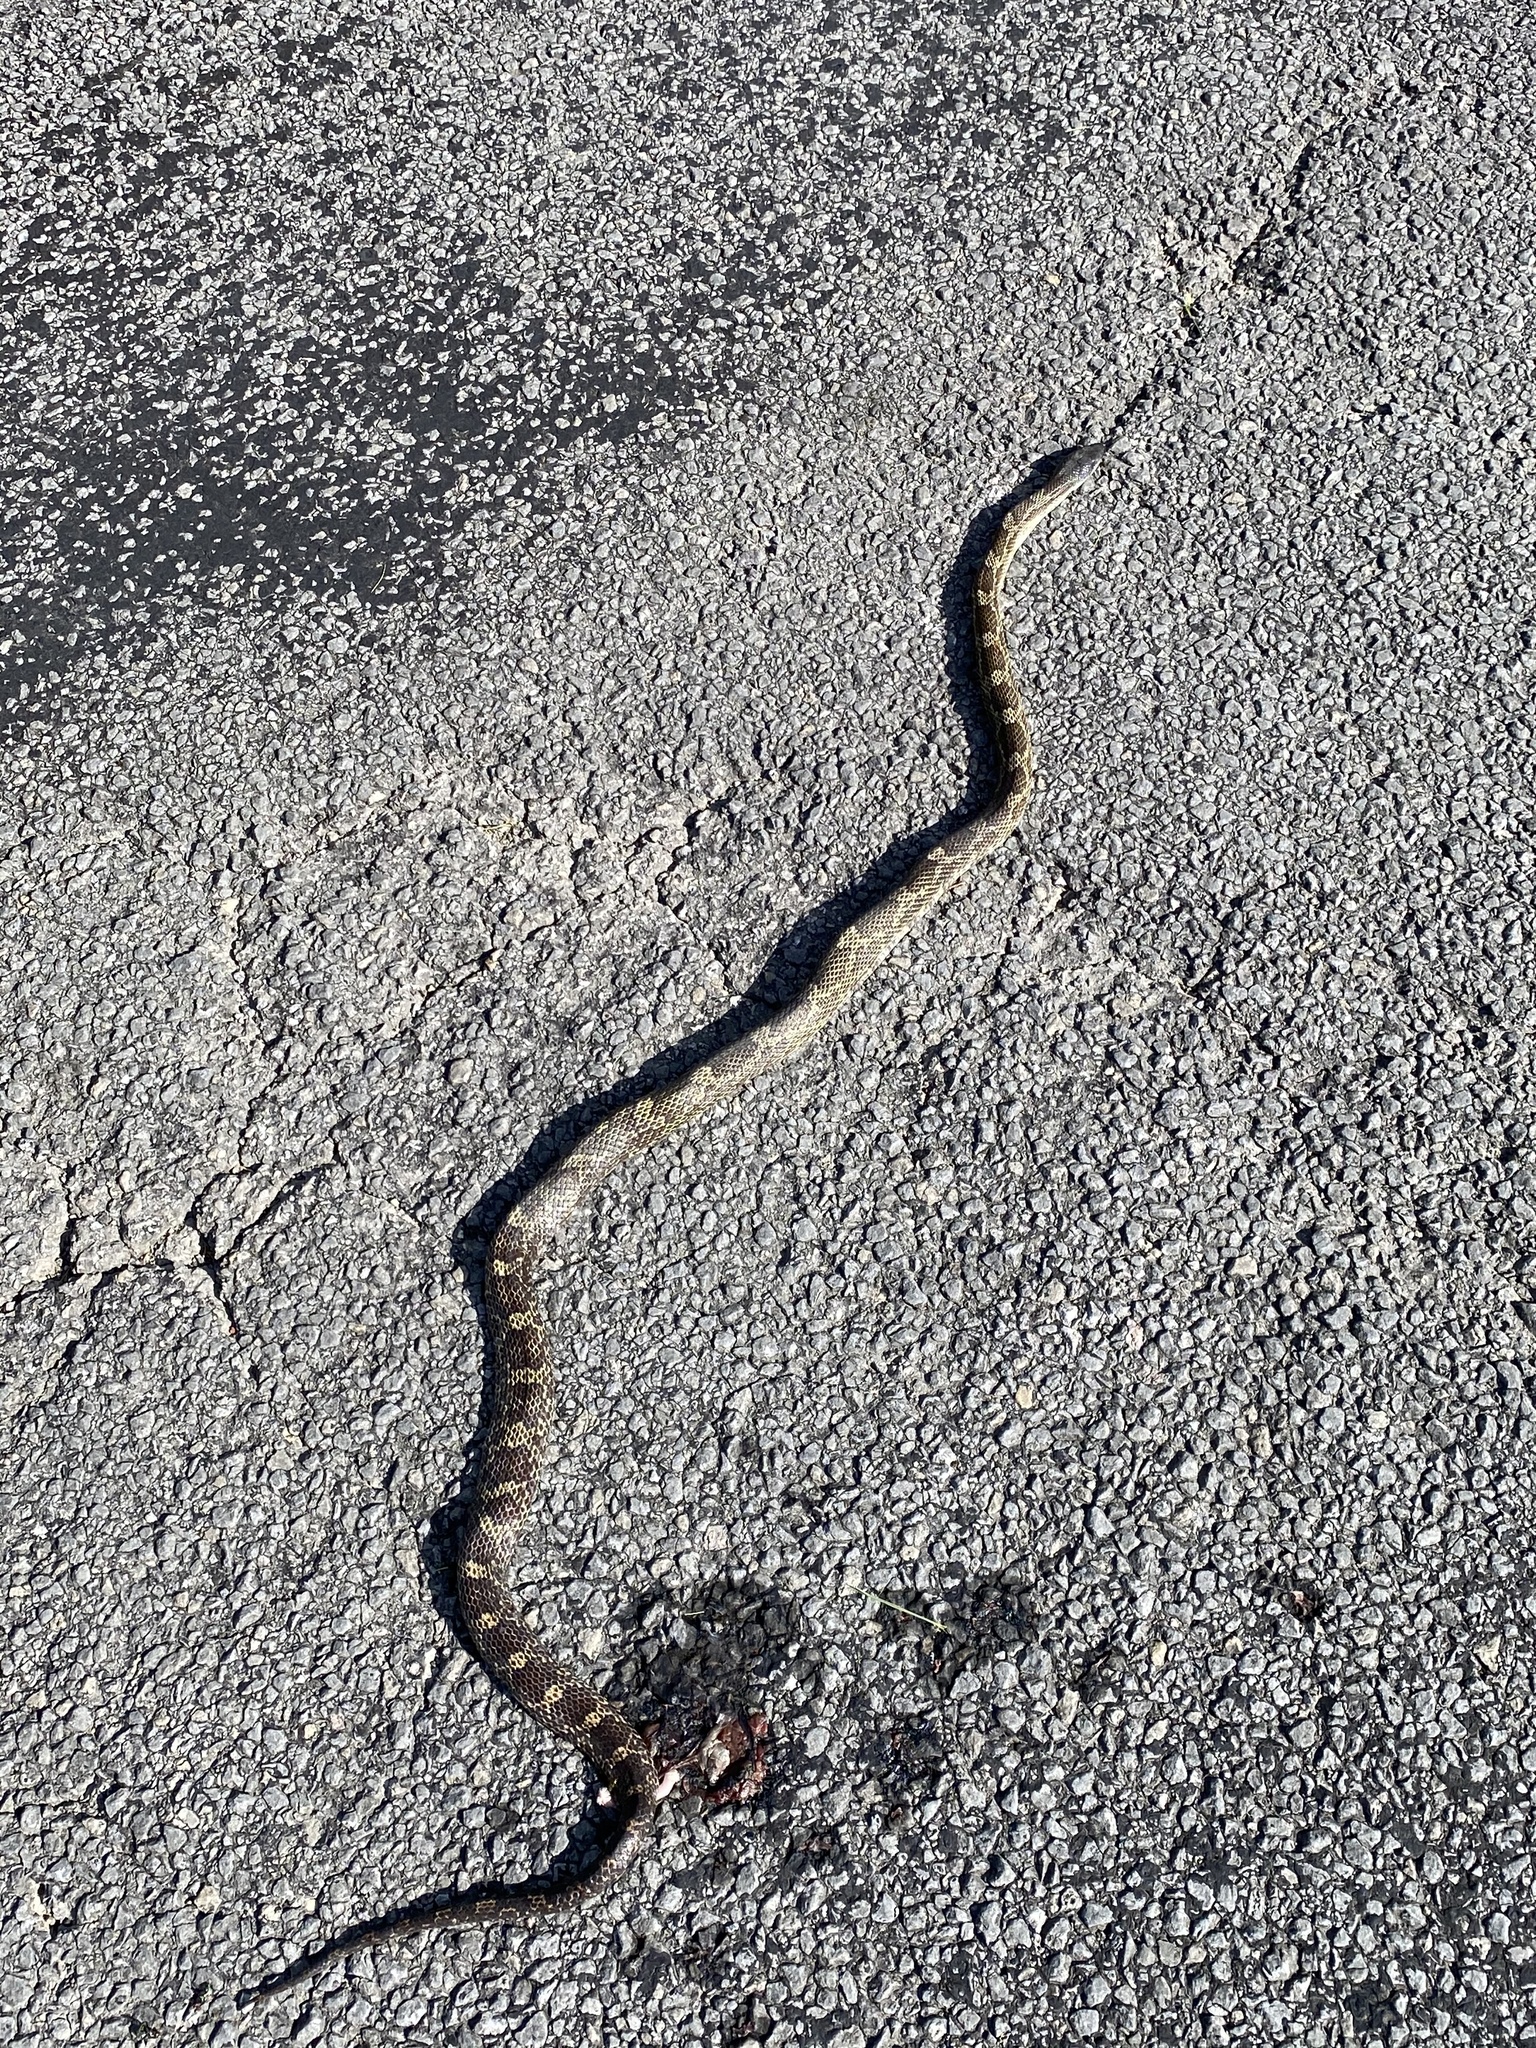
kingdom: Animalia
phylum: Chordata
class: Squamata
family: Colubridae
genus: Pantherophis
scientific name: Pantherophis spiloides
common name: Gray rat snake
